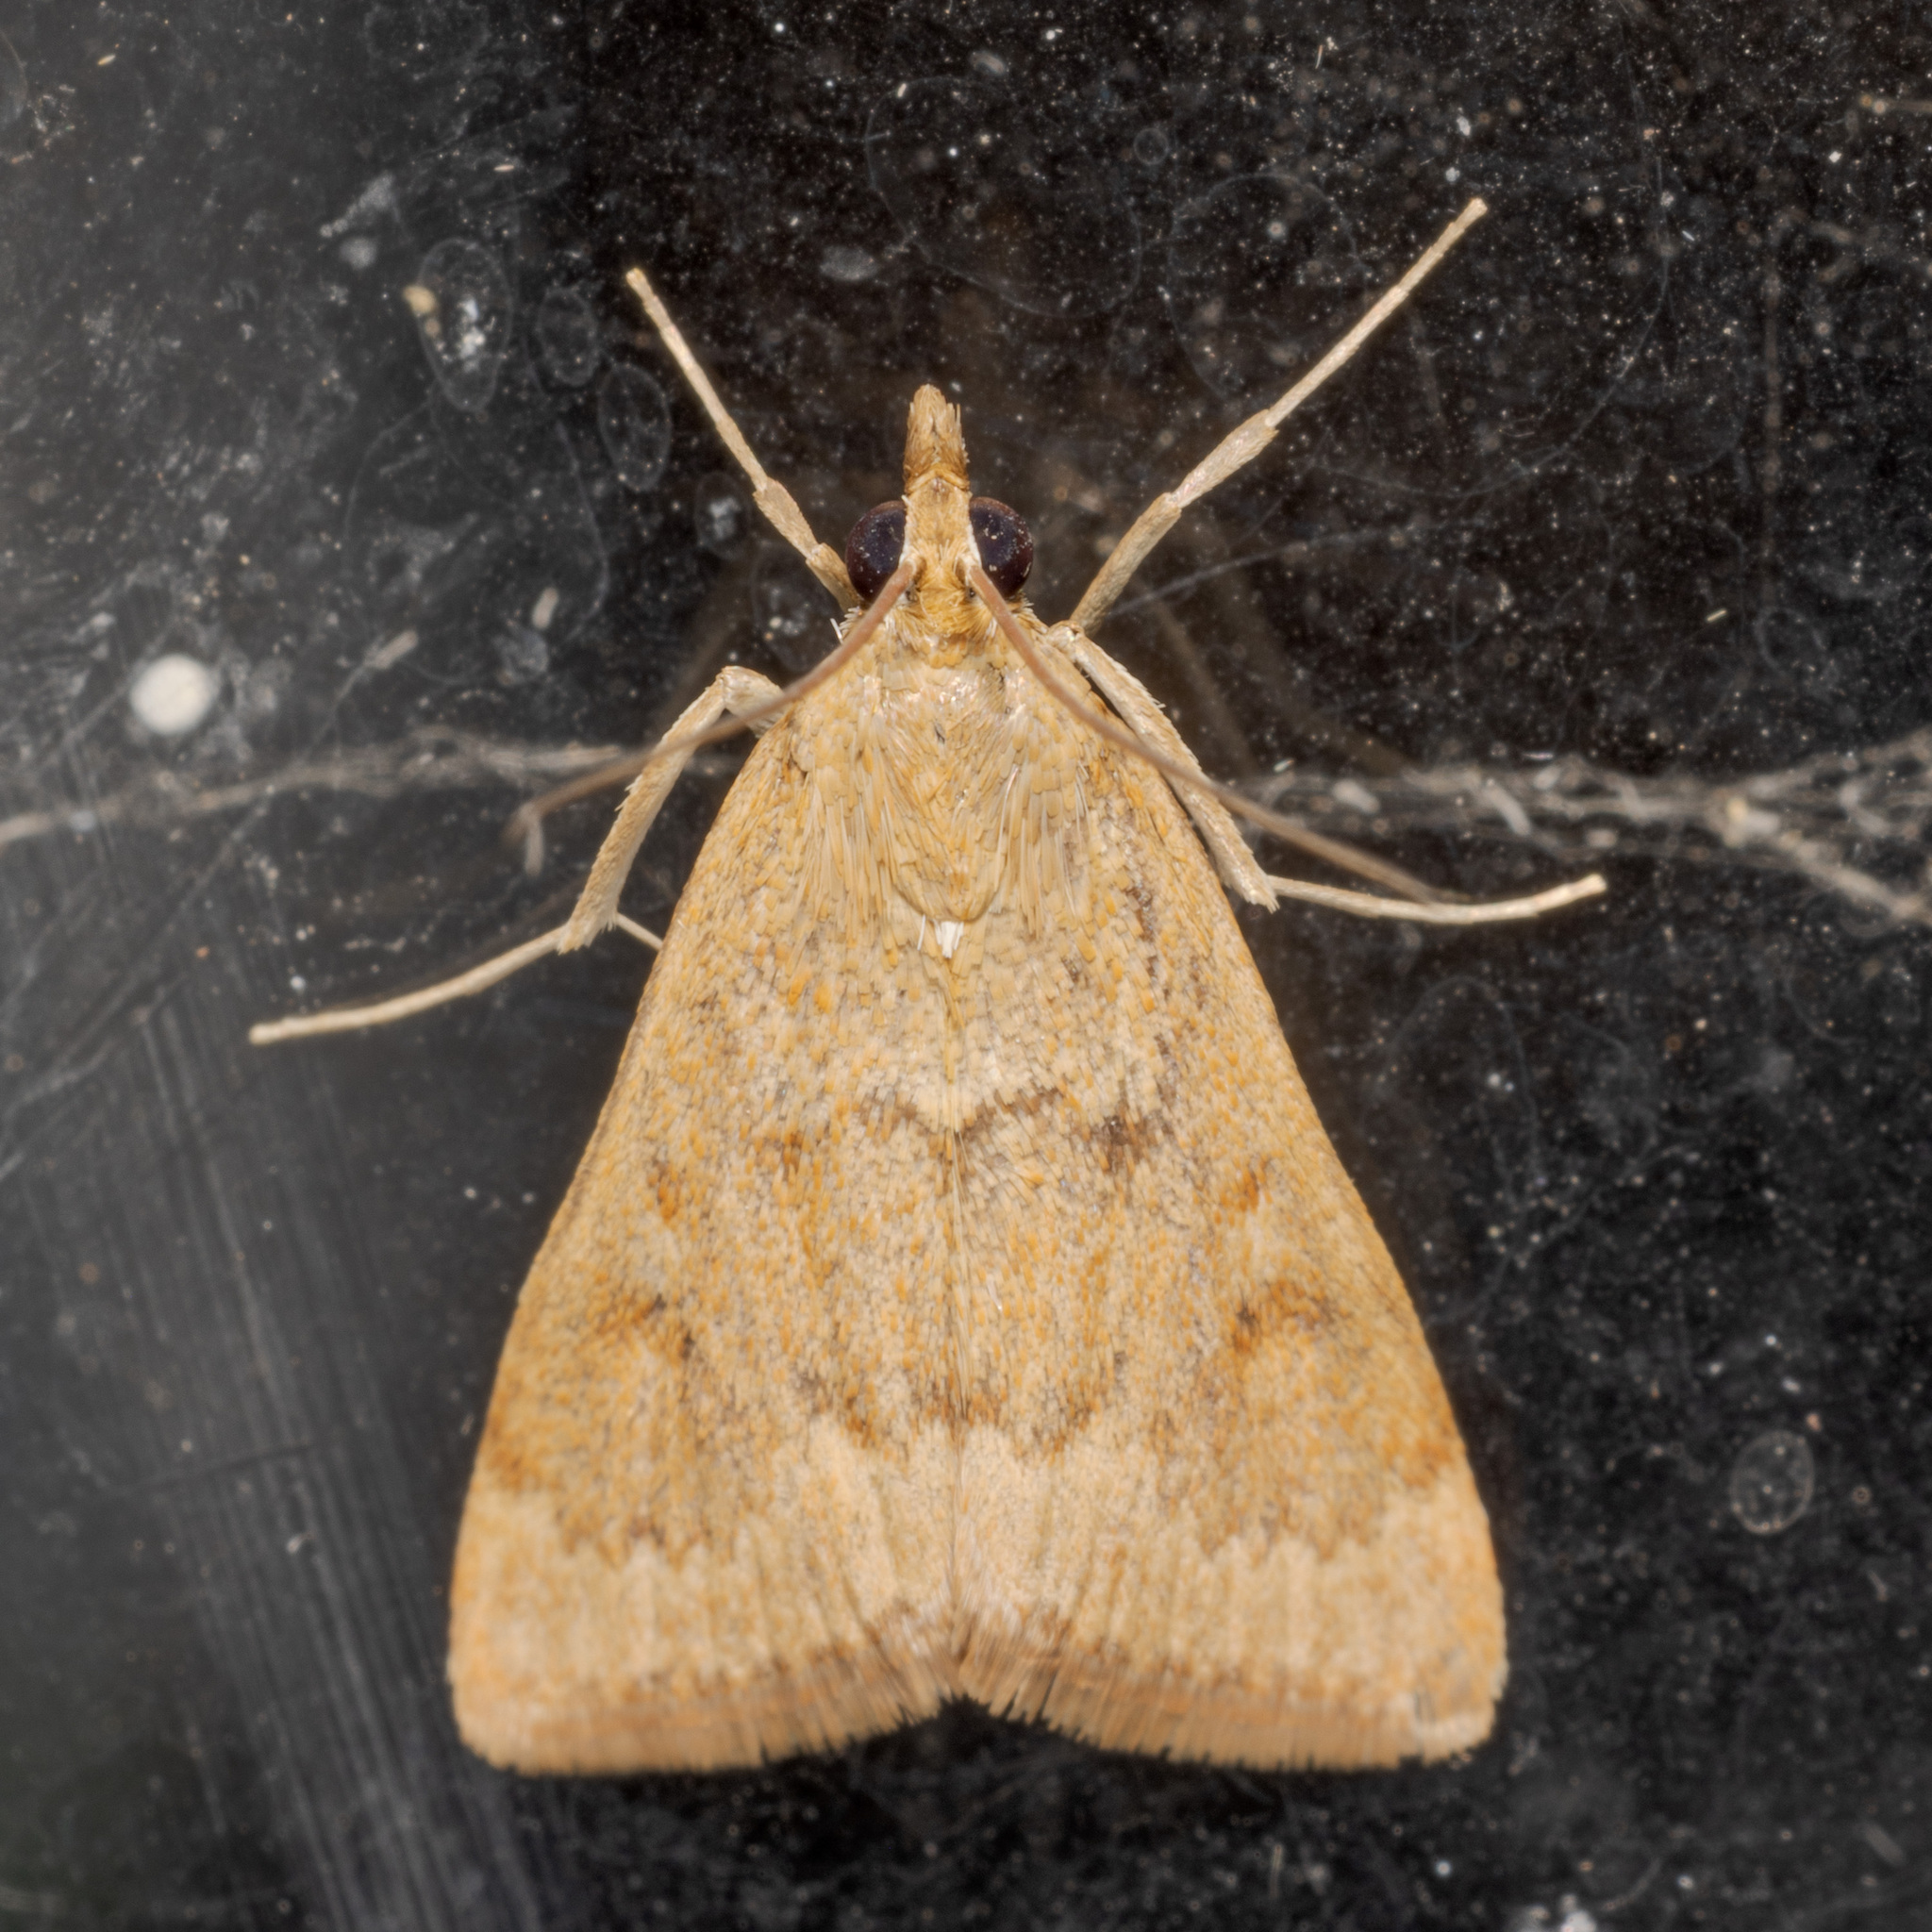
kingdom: Animalia
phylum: Arthropoda
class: Insecta
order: Lepidoptera
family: Crambidae
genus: Achyra
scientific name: Achyra rantalis
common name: Garden webworm
